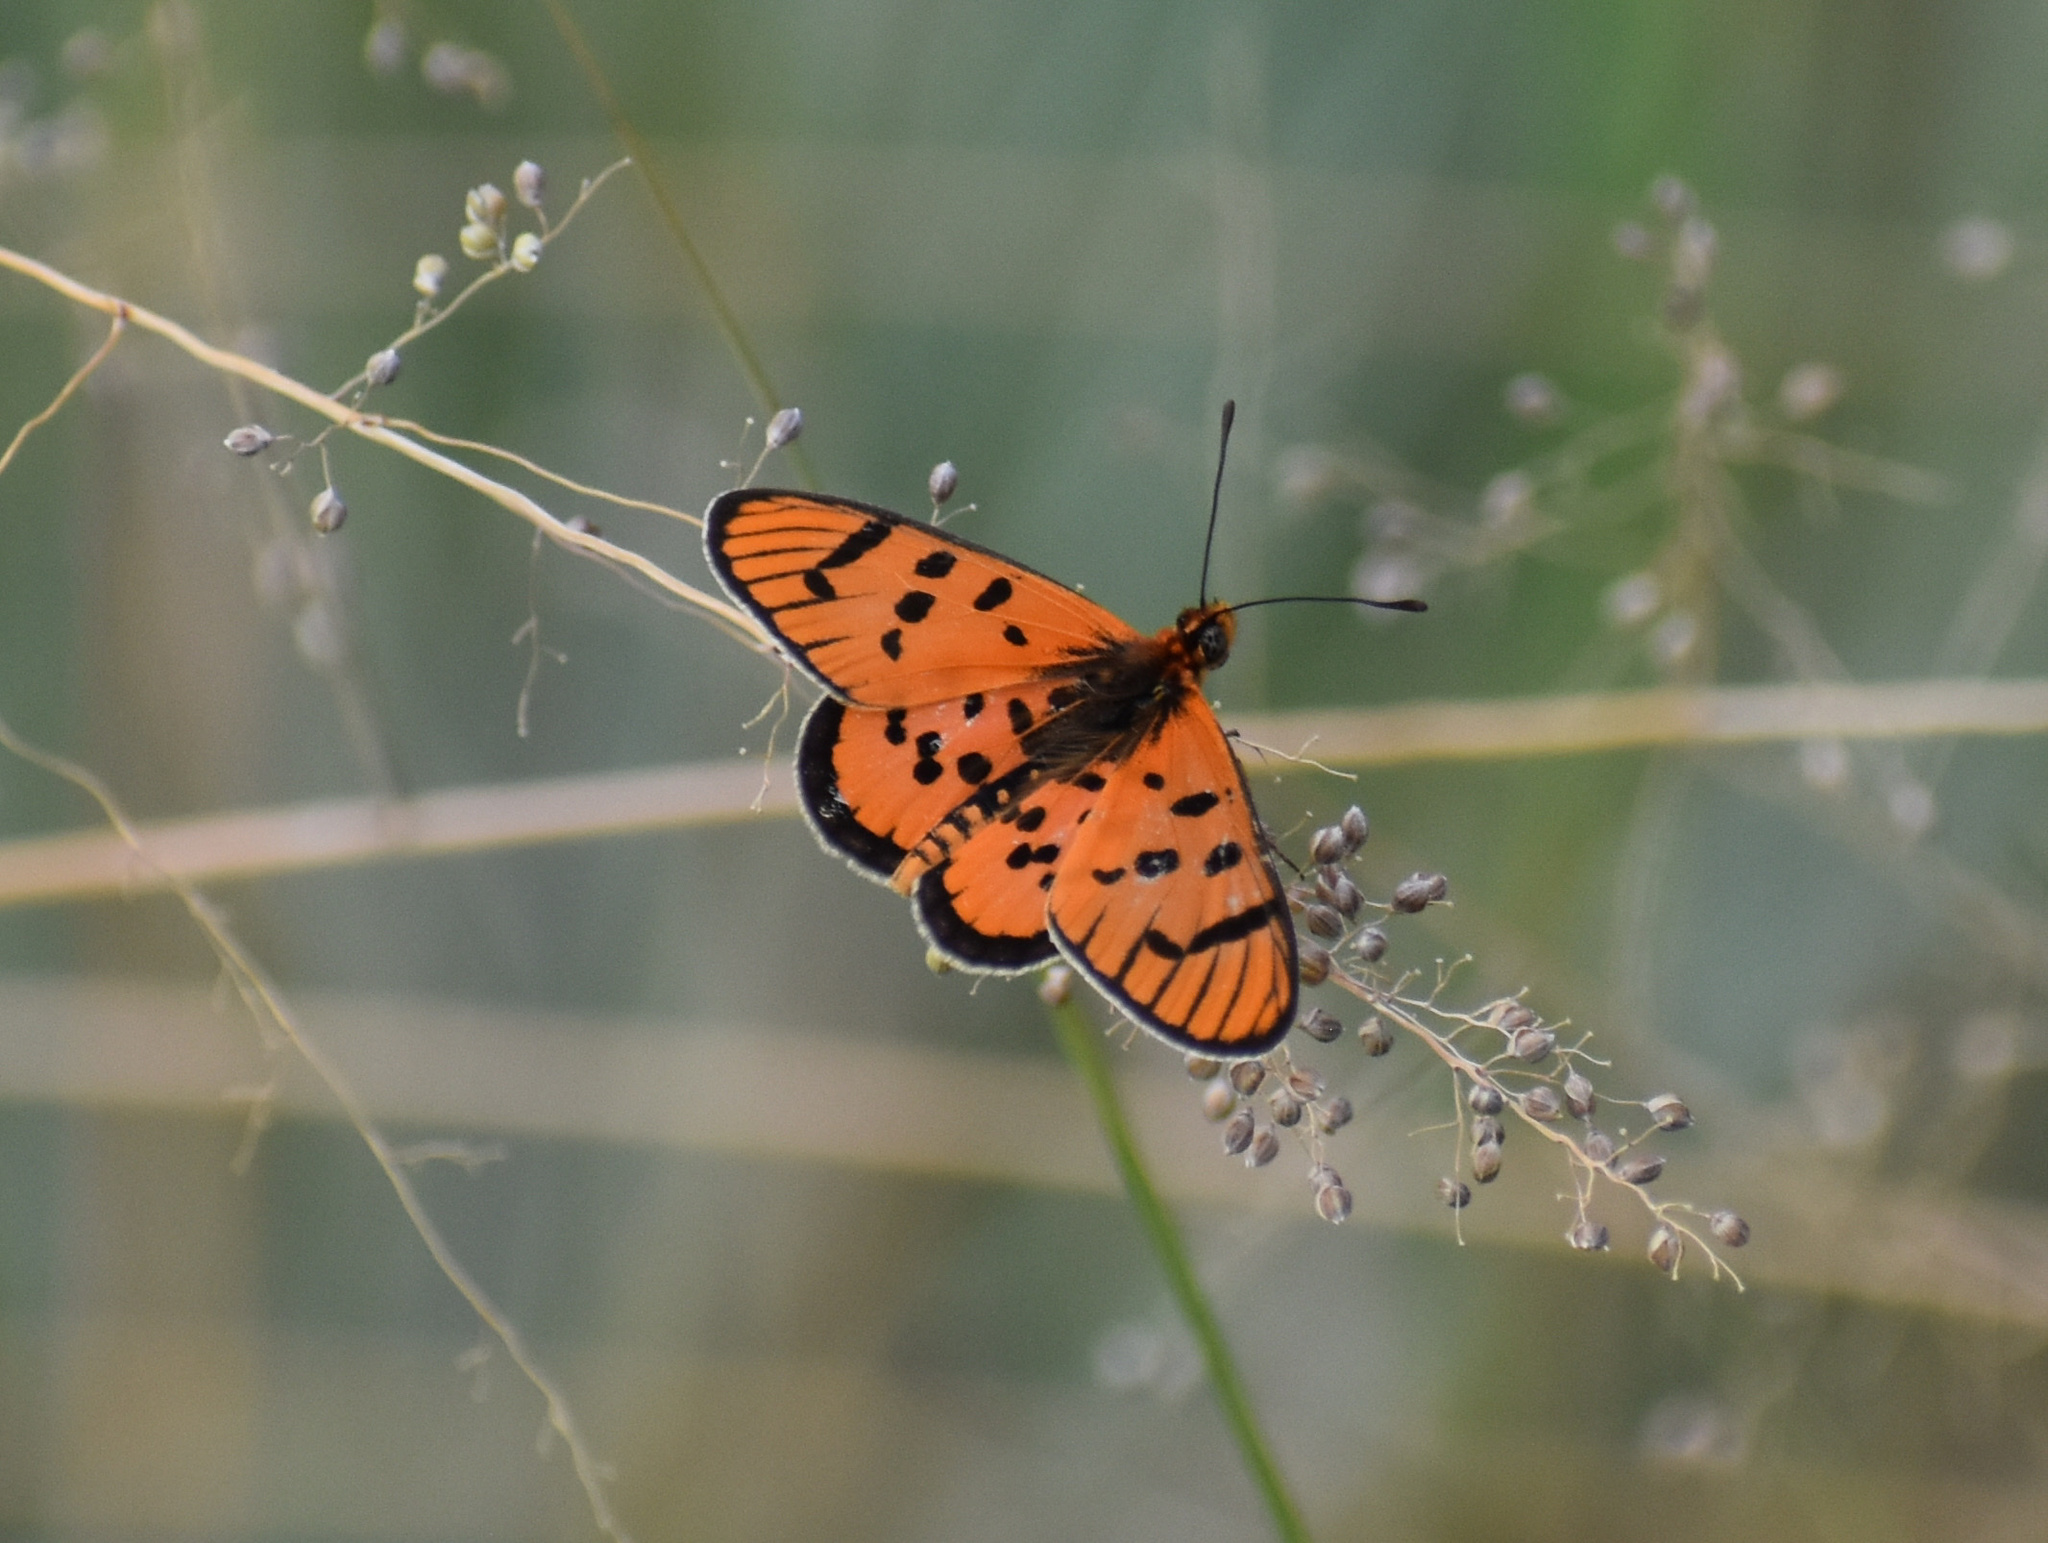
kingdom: Animalia
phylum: Arthropoda
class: Insecta
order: Lepidoptera
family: Nymphalidae
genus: Acraea
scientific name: Acraea rahira
